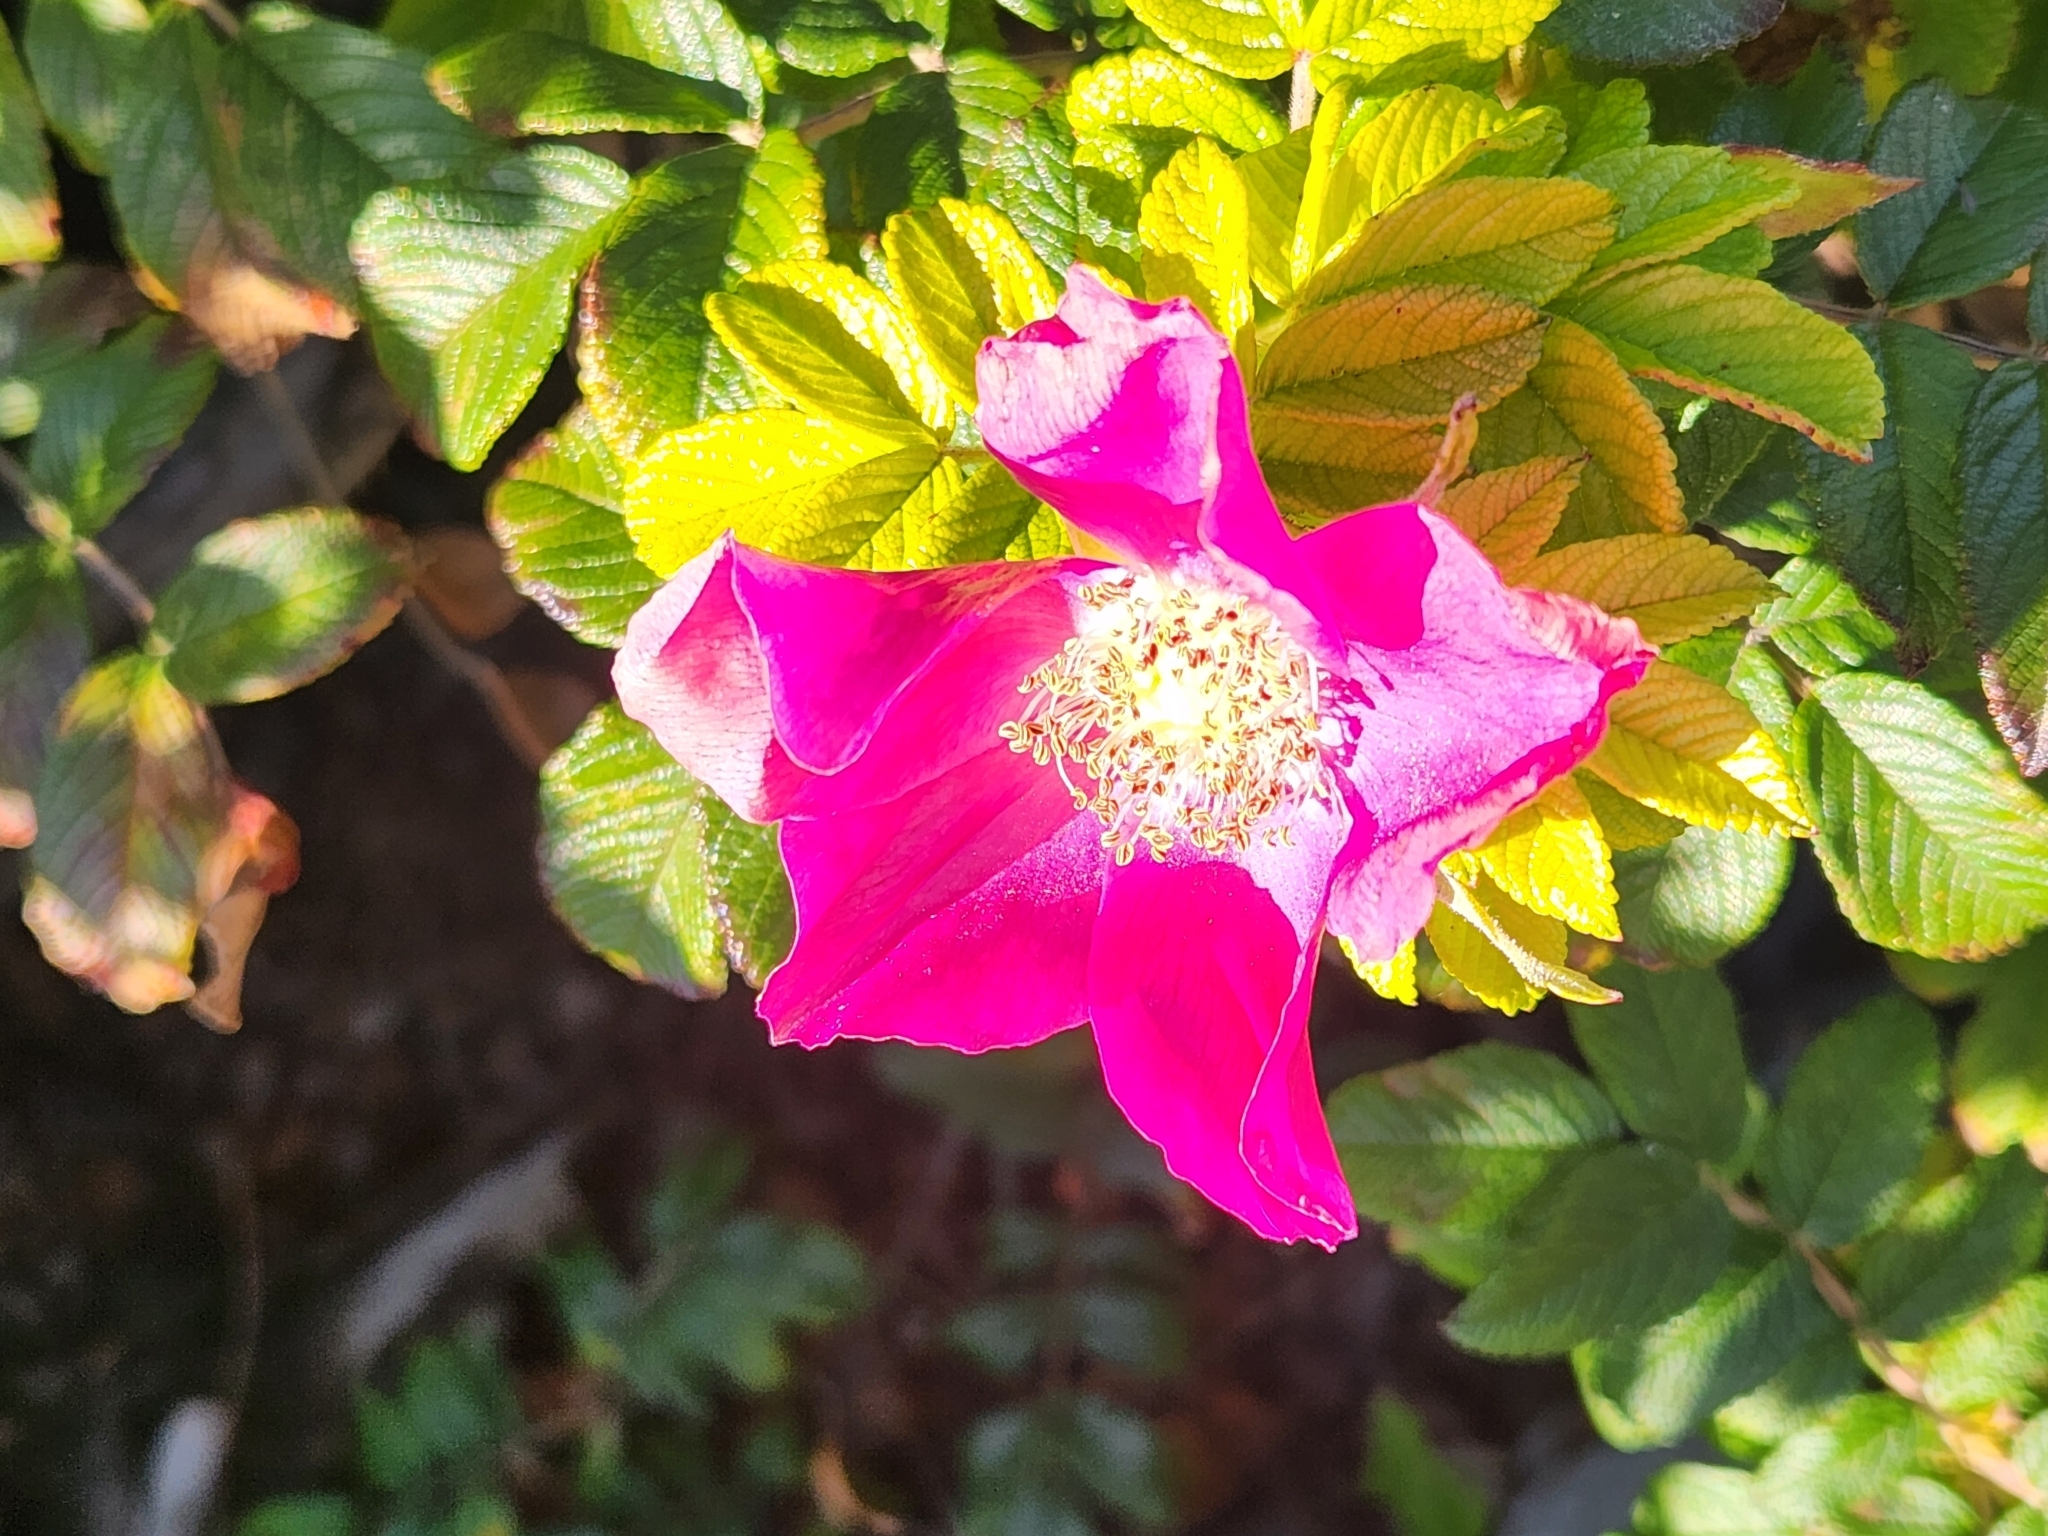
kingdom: Plantae
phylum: Tracheophyta
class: Magnoliopsida
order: Rosales
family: Rosaceae
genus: Rosa
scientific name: Rosa rugosa
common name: Japanese rose
